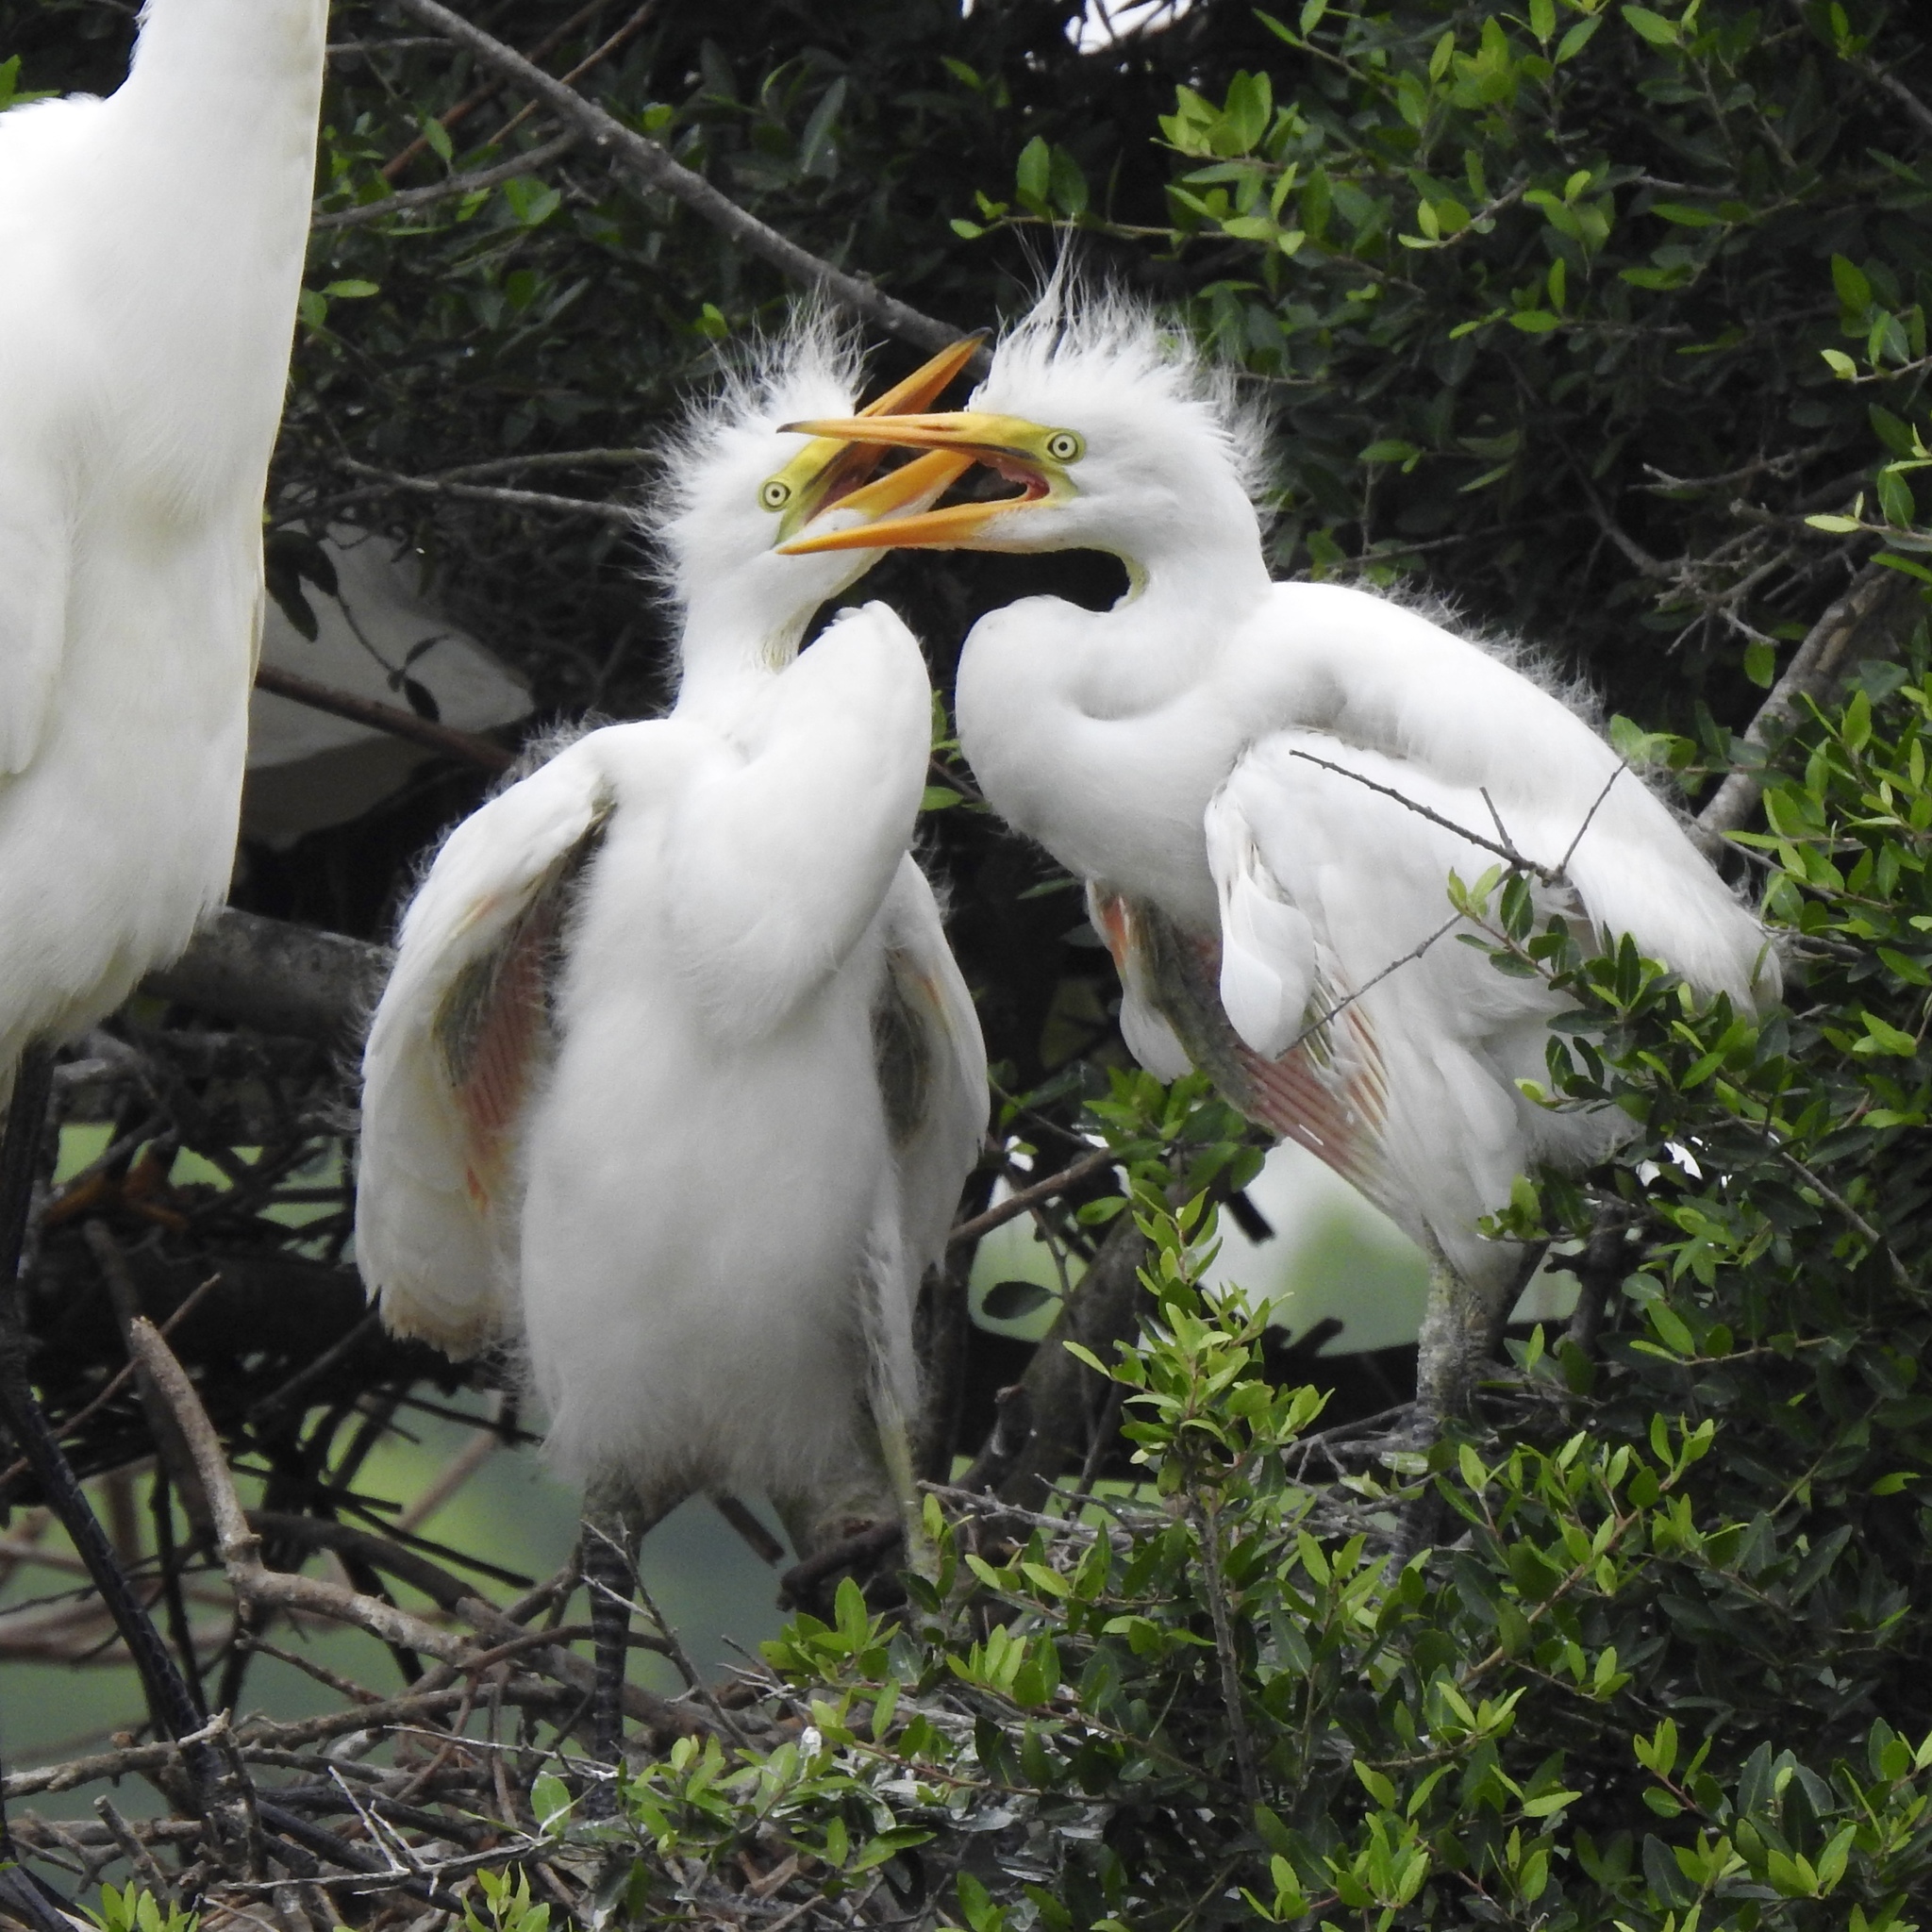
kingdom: Animalia
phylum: Chordata
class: Aves
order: Pelecaniformes
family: Ardeidae
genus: Ardea
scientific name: Ardea alba
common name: Great egret
